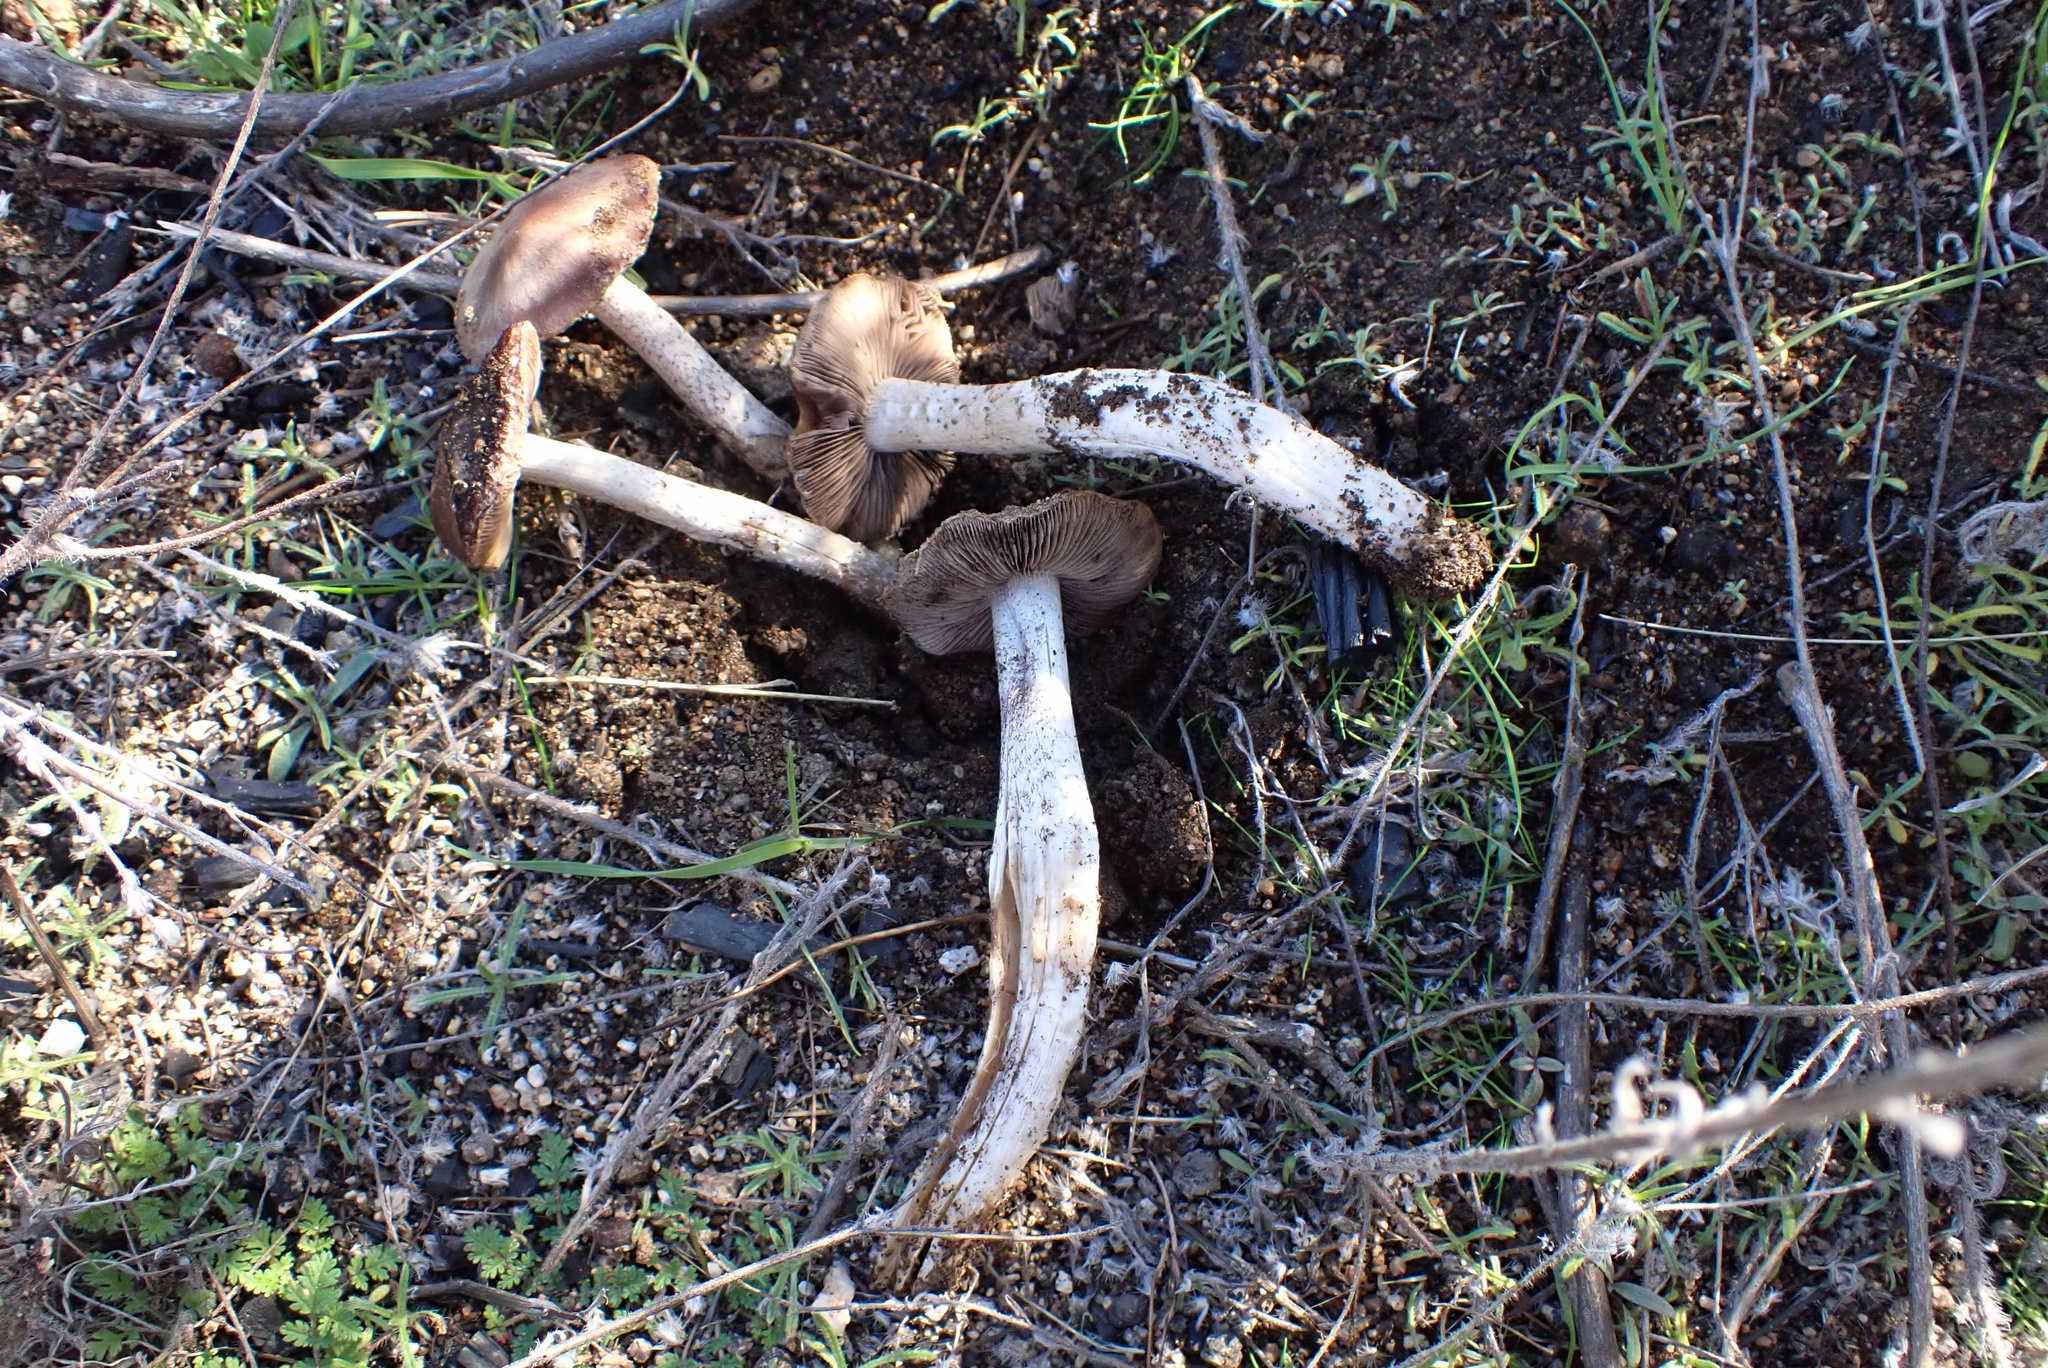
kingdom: Fungi
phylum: Basidiomycota
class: Agaricomycetes
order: Agaricales
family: Psathyrellaceae
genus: Psathyrella
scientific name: Psathyrella griseopallida
